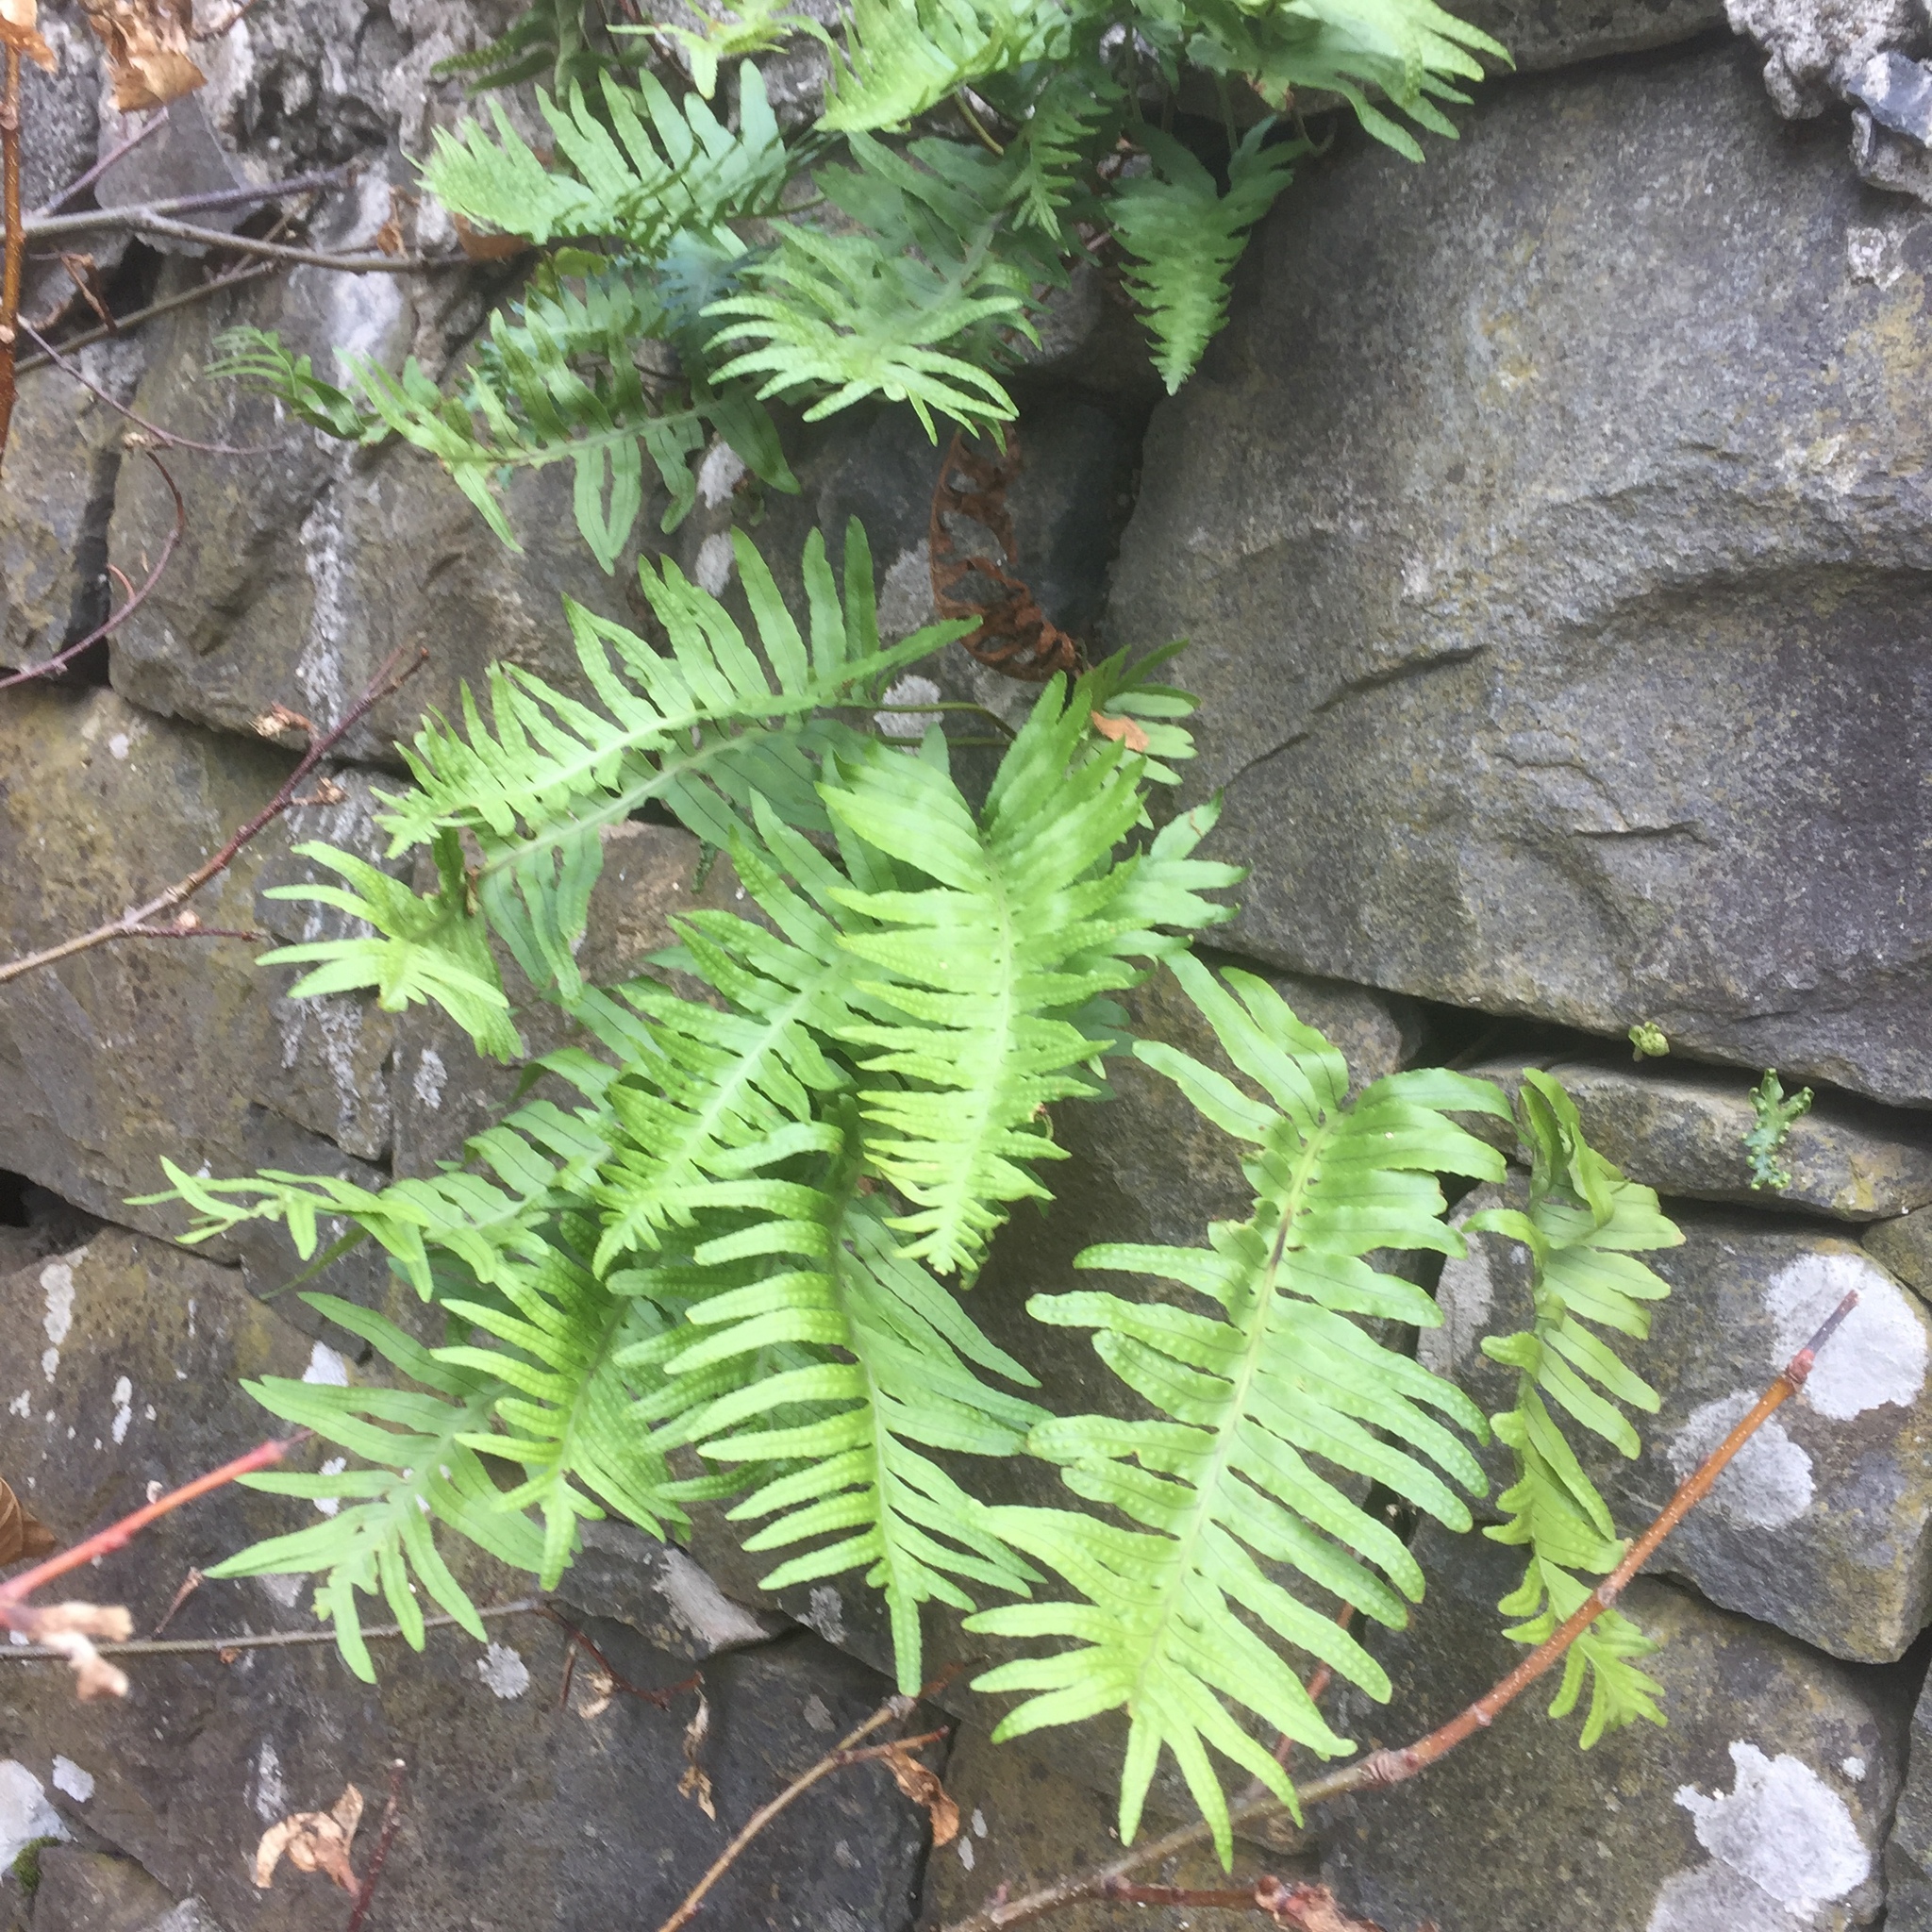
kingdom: Plantae
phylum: Tracheophyta
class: Polypodiopsida
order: Polypodiales
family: Polypodiaceae
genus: Polypodium
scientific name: Polypodium macaronesicum
